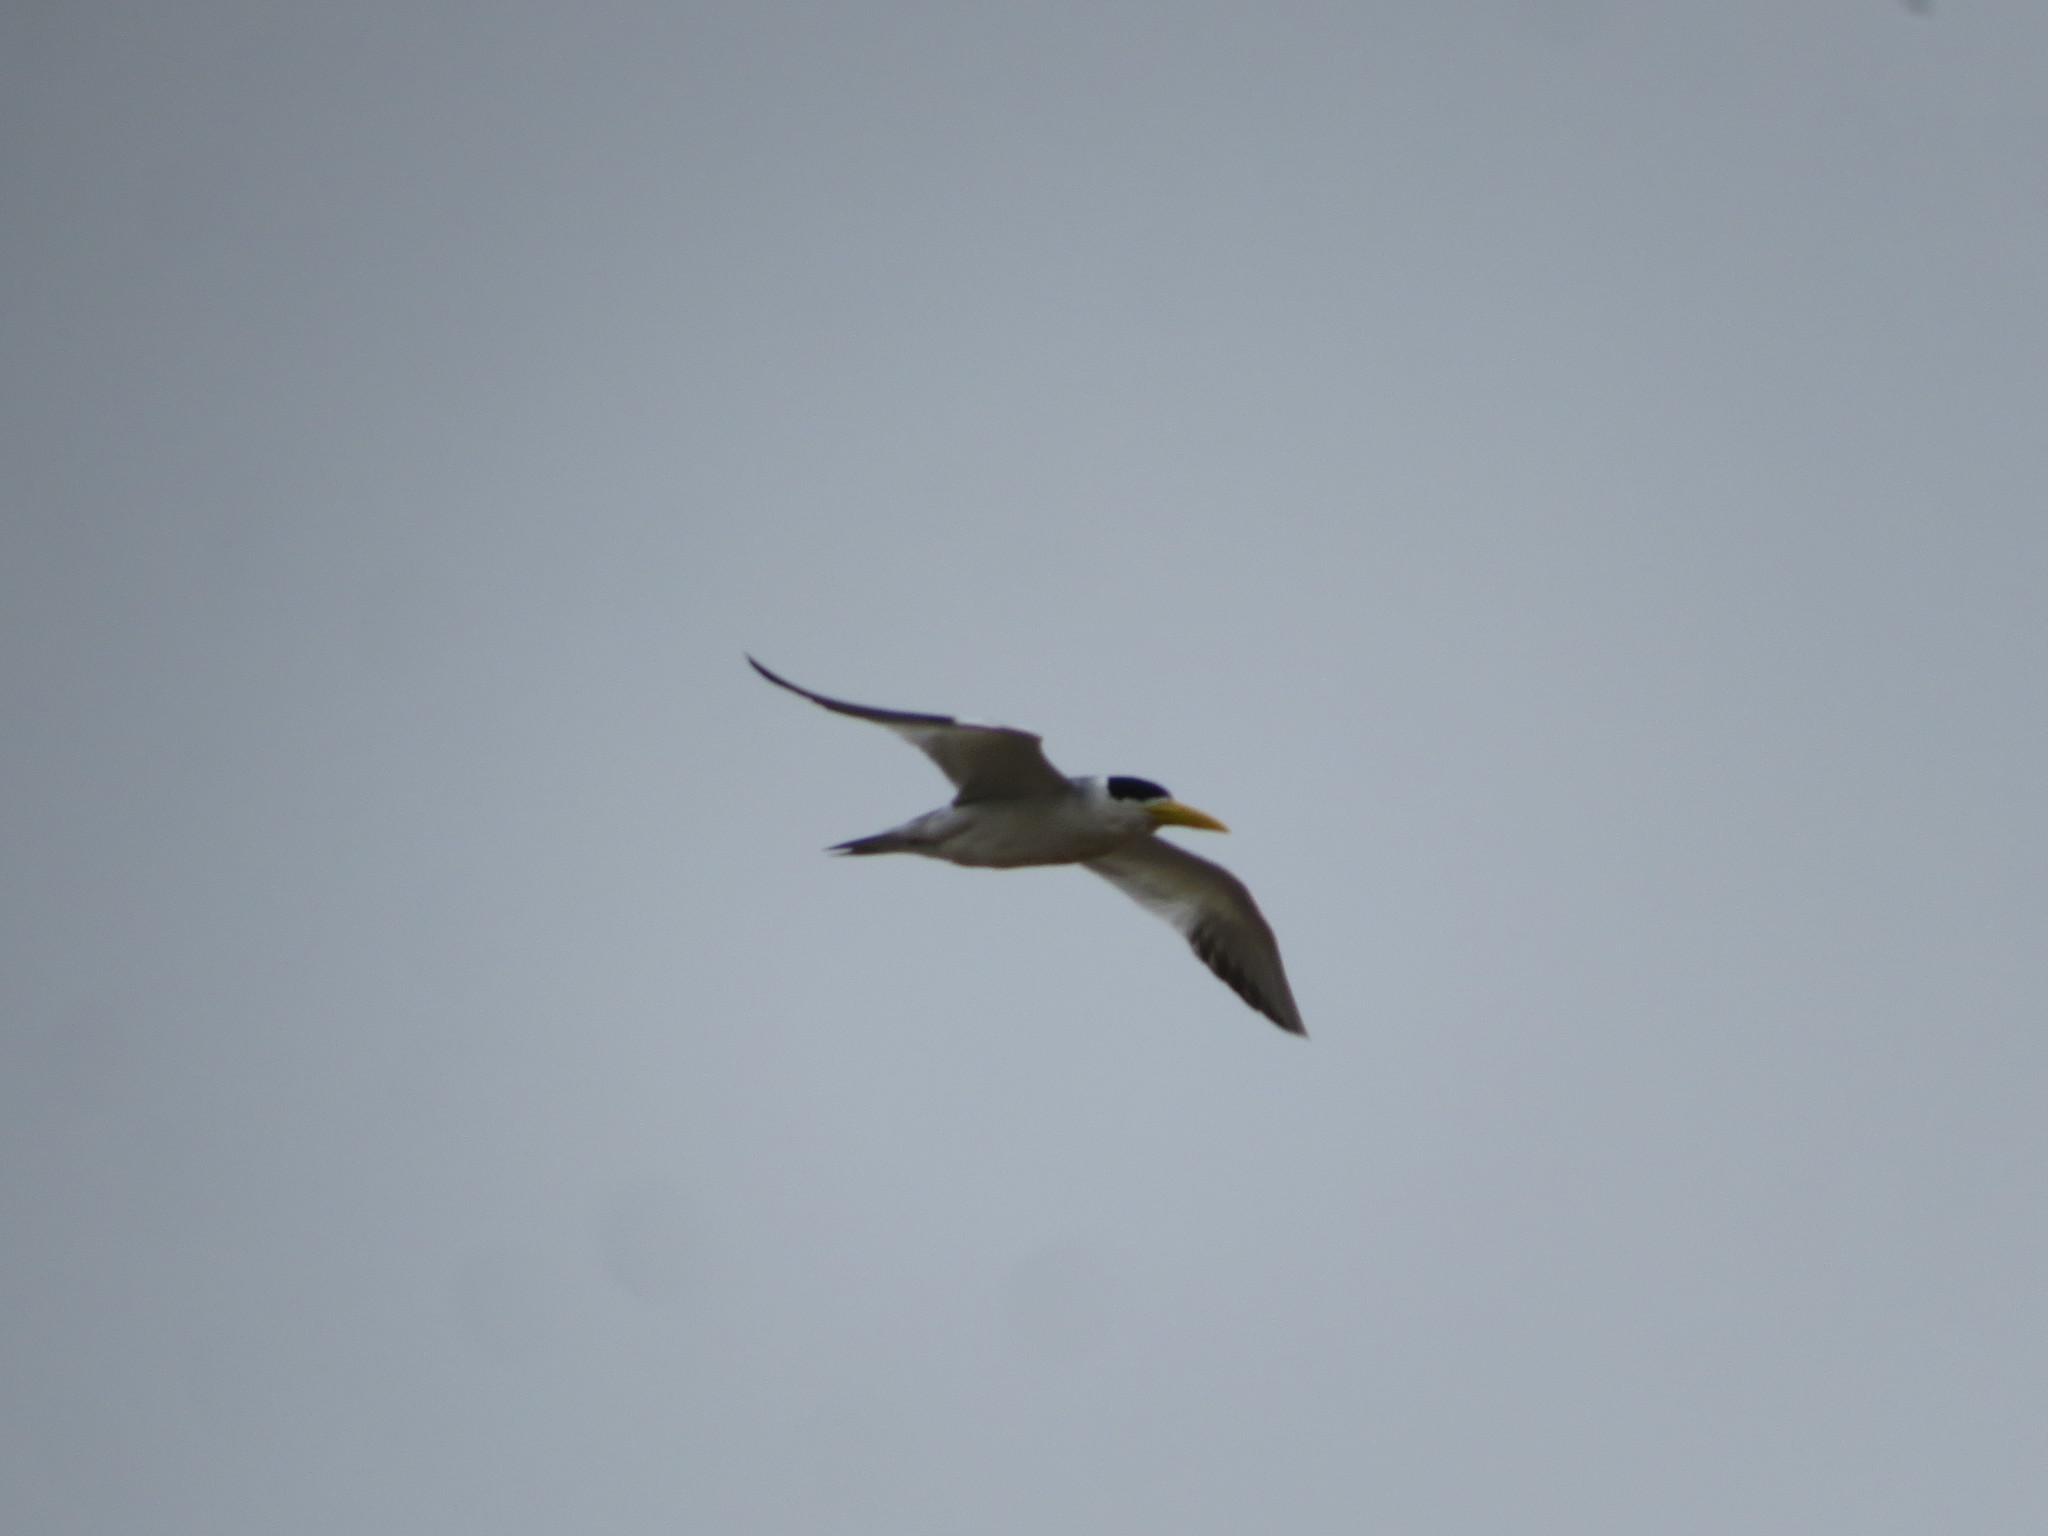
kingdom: Animalia
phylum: Chordata
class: Aves
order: Charadriiformes
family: Laridae
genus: Phaetusa
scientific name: Phaetusa simplex
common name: Large-billed tern
